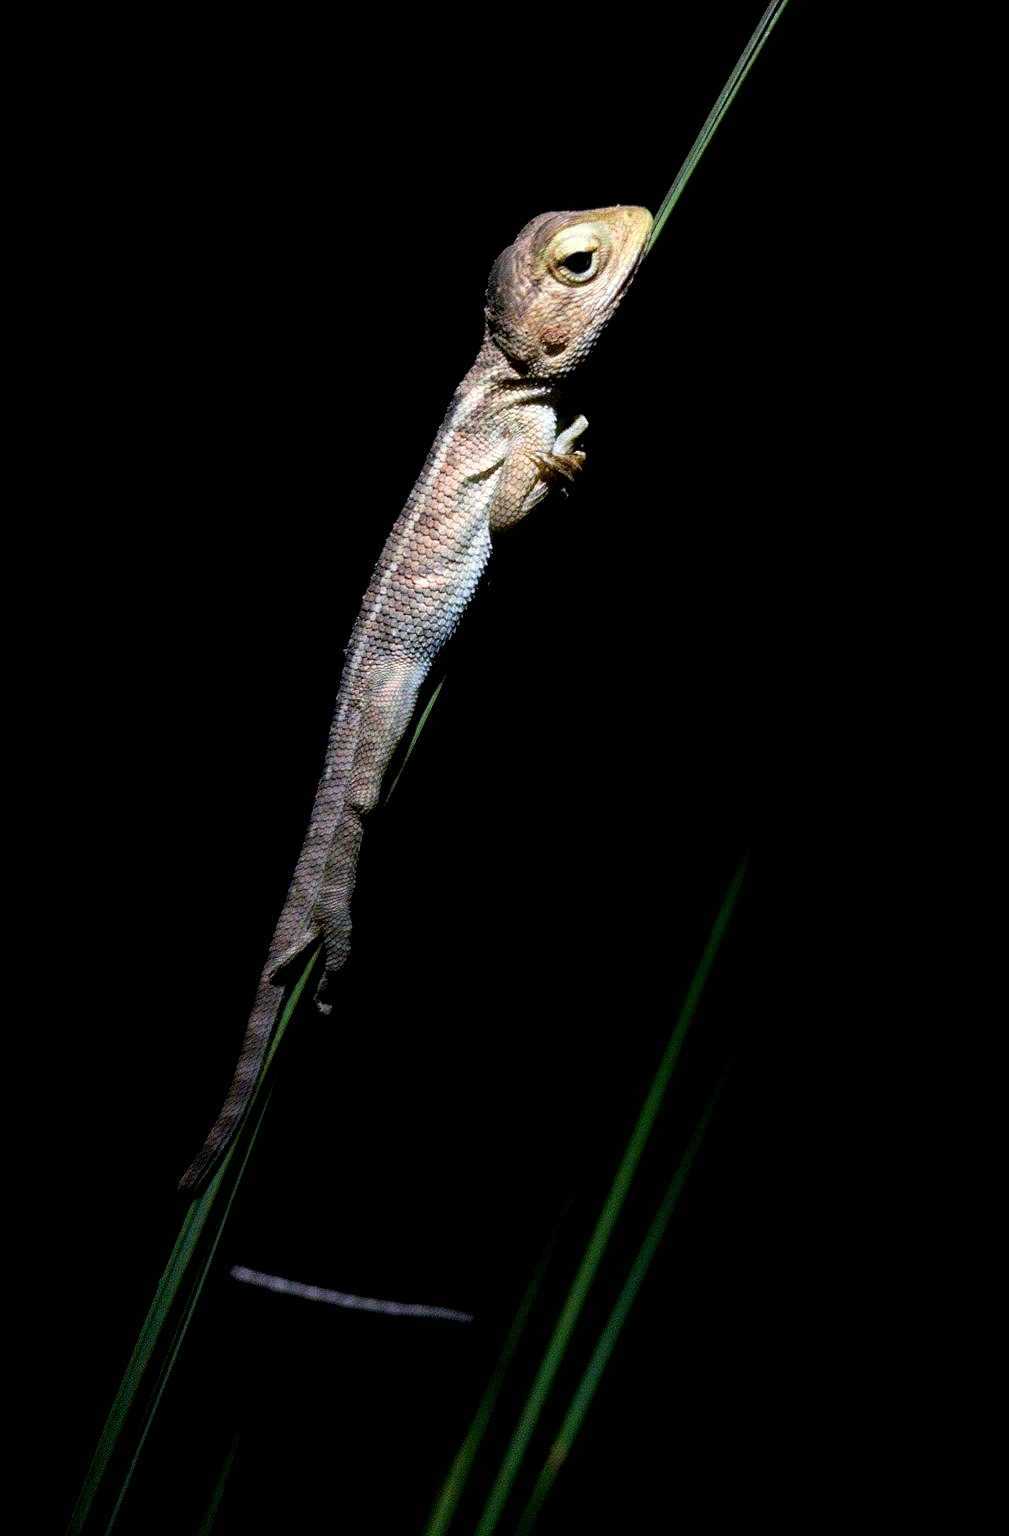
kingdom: Animalia
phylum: Chordata
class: Squamata
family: Agamidae
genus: Calotes
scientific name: Calotes versicolor
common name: Oriental garden lizard
